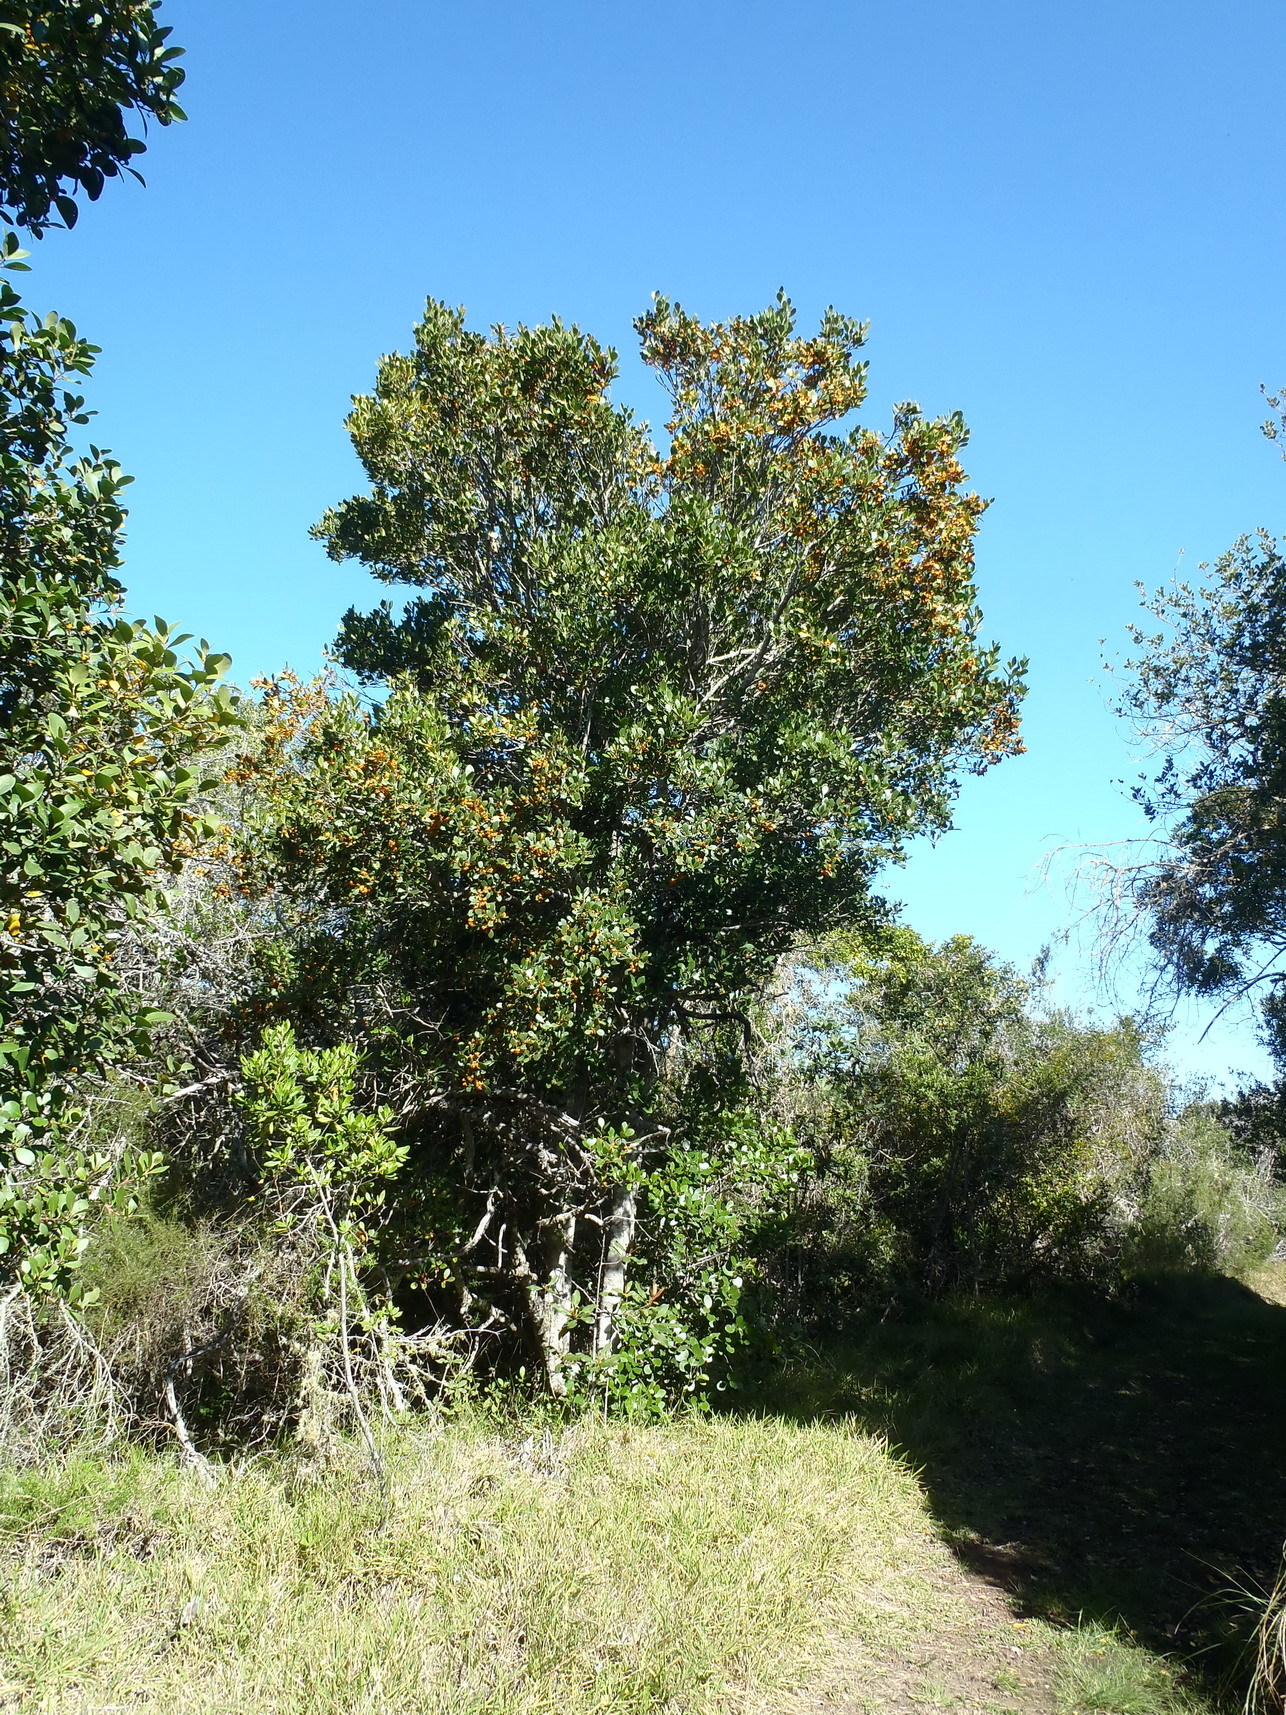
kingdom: Plantae
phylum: Tracheophyta
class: Magnoliopsida
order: Celastrales
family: Celastraceae
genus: Pterocelastrus
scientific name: Pterocelastrus tricuspidatus
